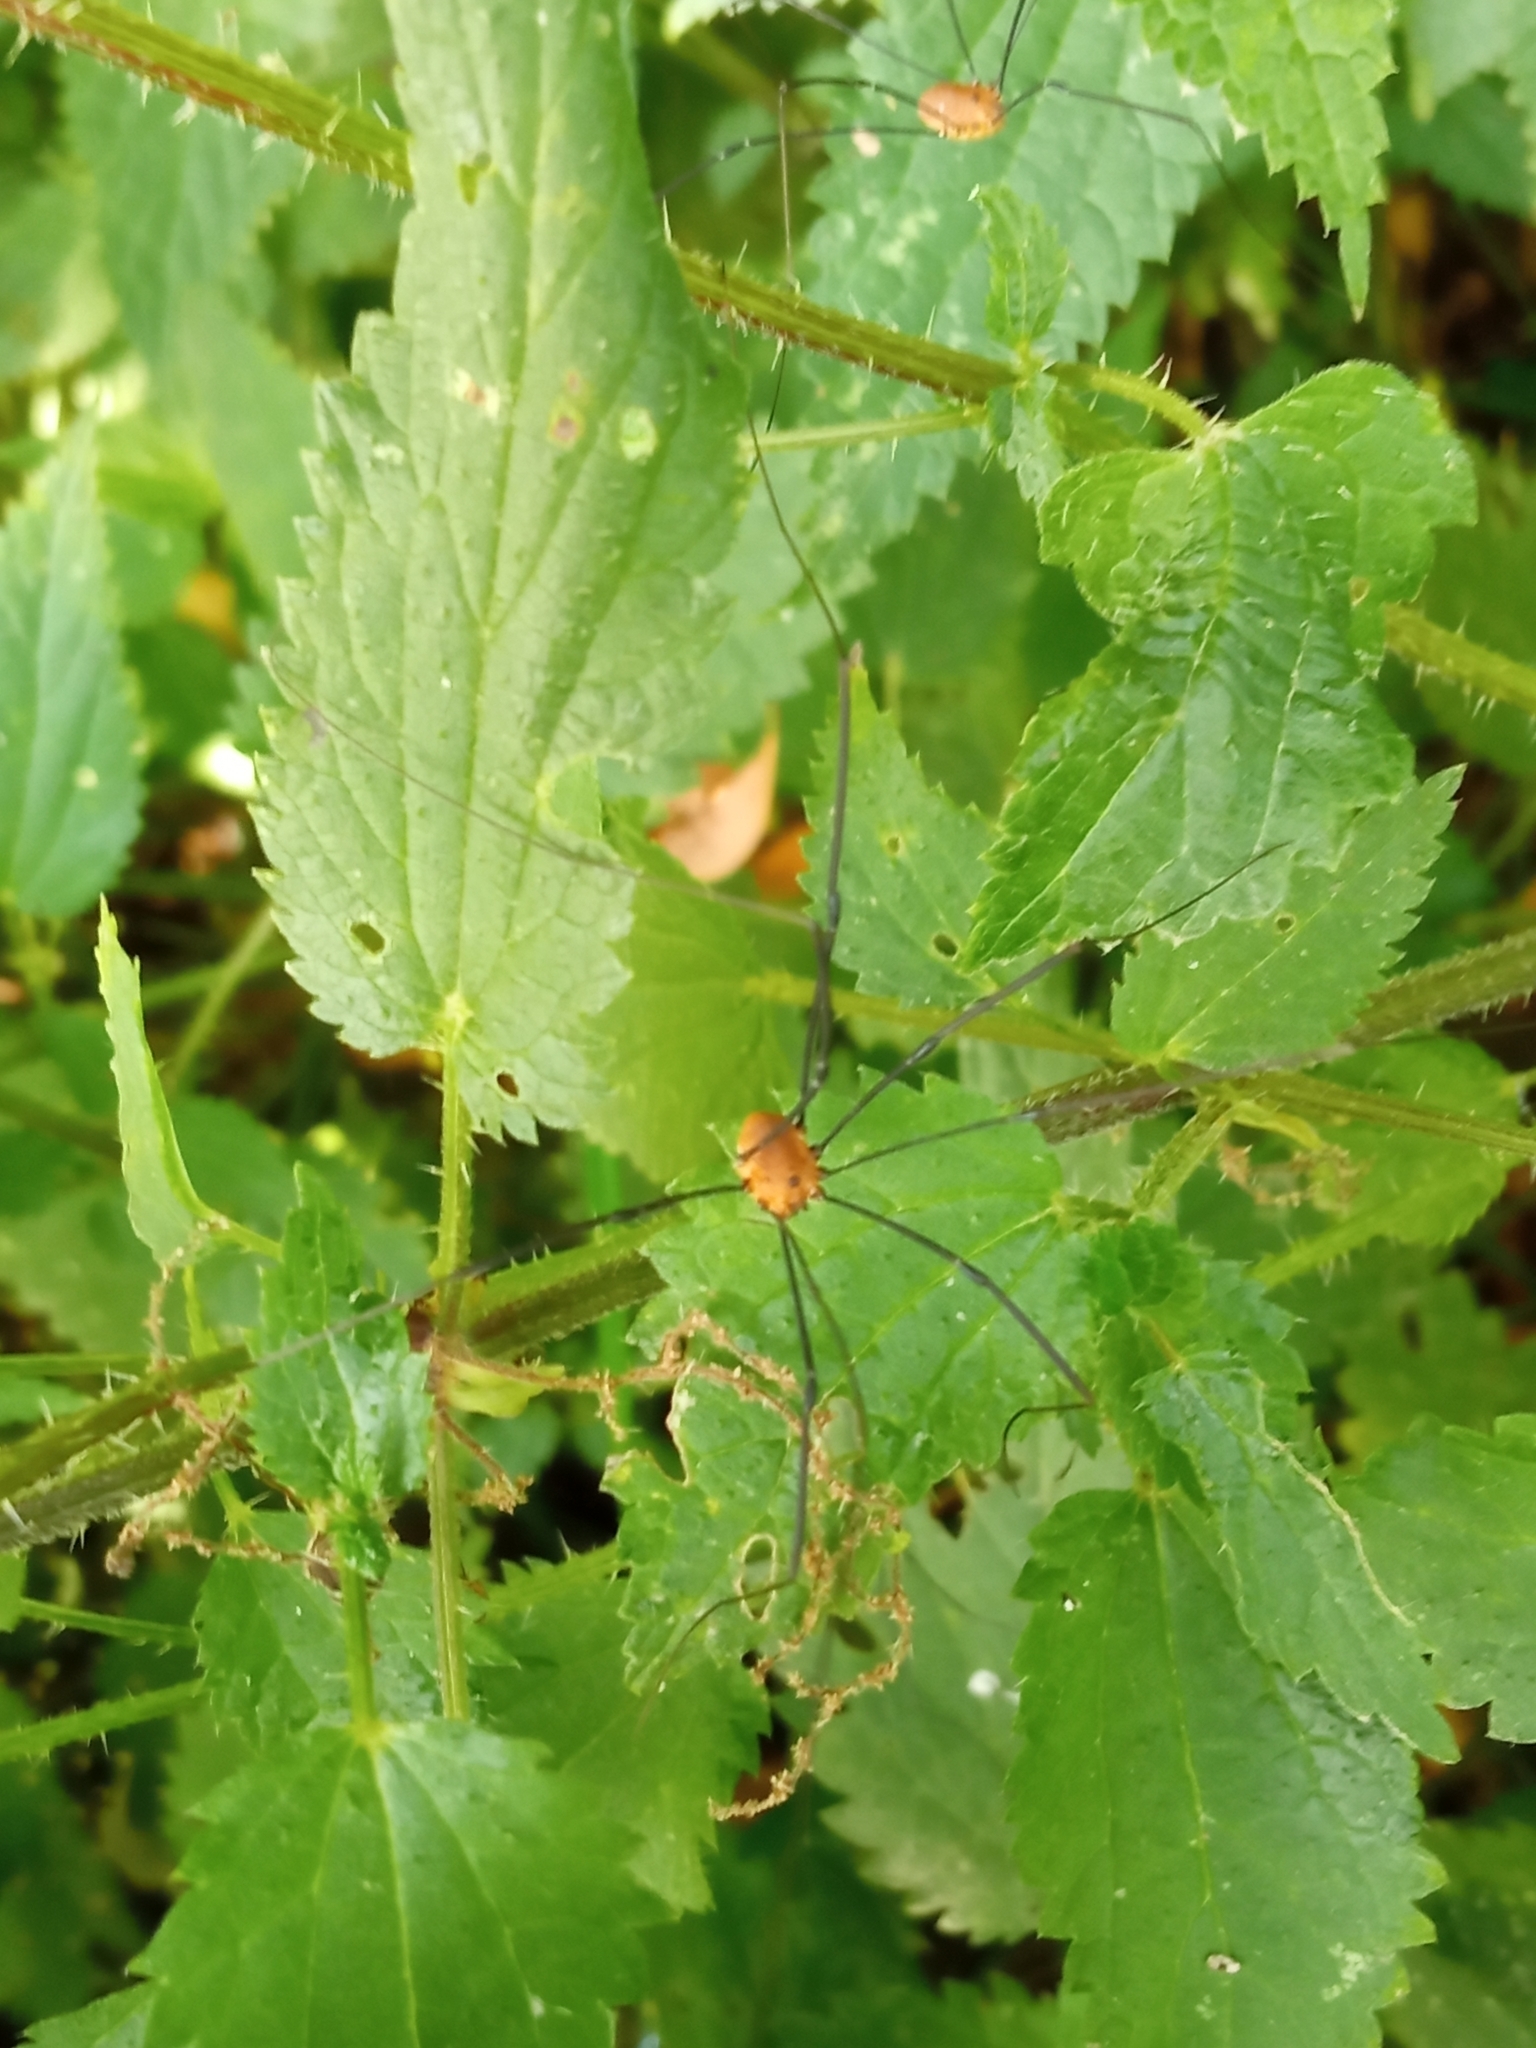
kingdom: Animalia
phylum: Arthropoda
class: Arachnida
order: Opiliones
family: Sclerosomatidae
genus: Leiobunum
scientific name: Leiobunum rotundum
